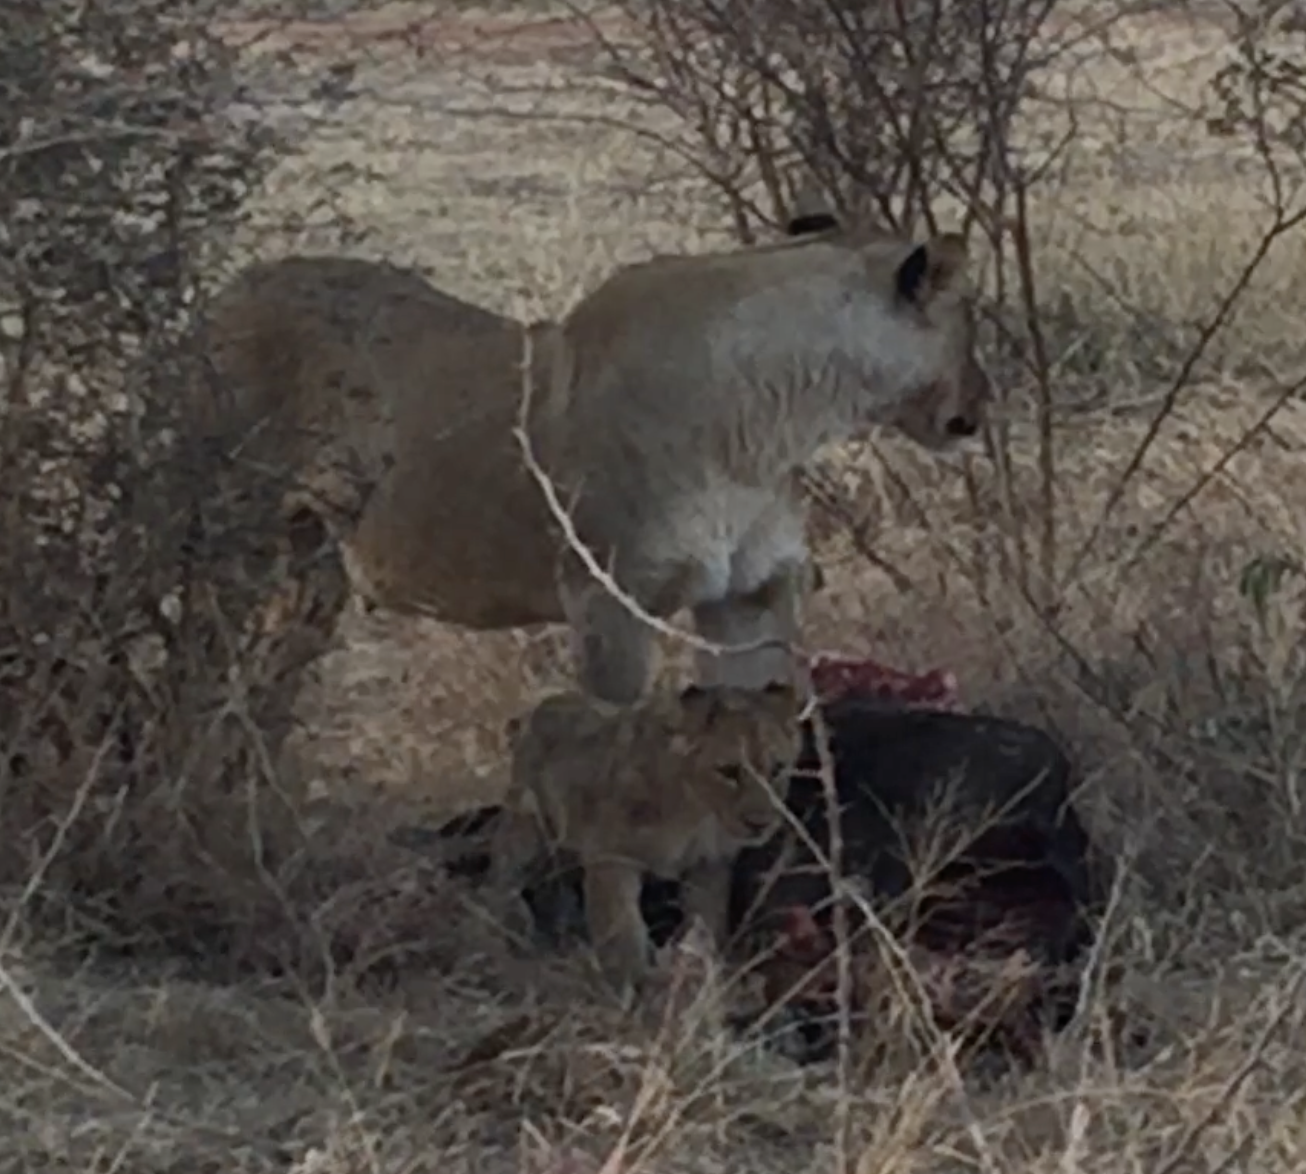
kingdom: Animalia
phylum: Chordata
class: Mammalia
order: Carnivora
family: Felidae
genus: Panthera
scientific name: Panthera leo
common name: Lion
